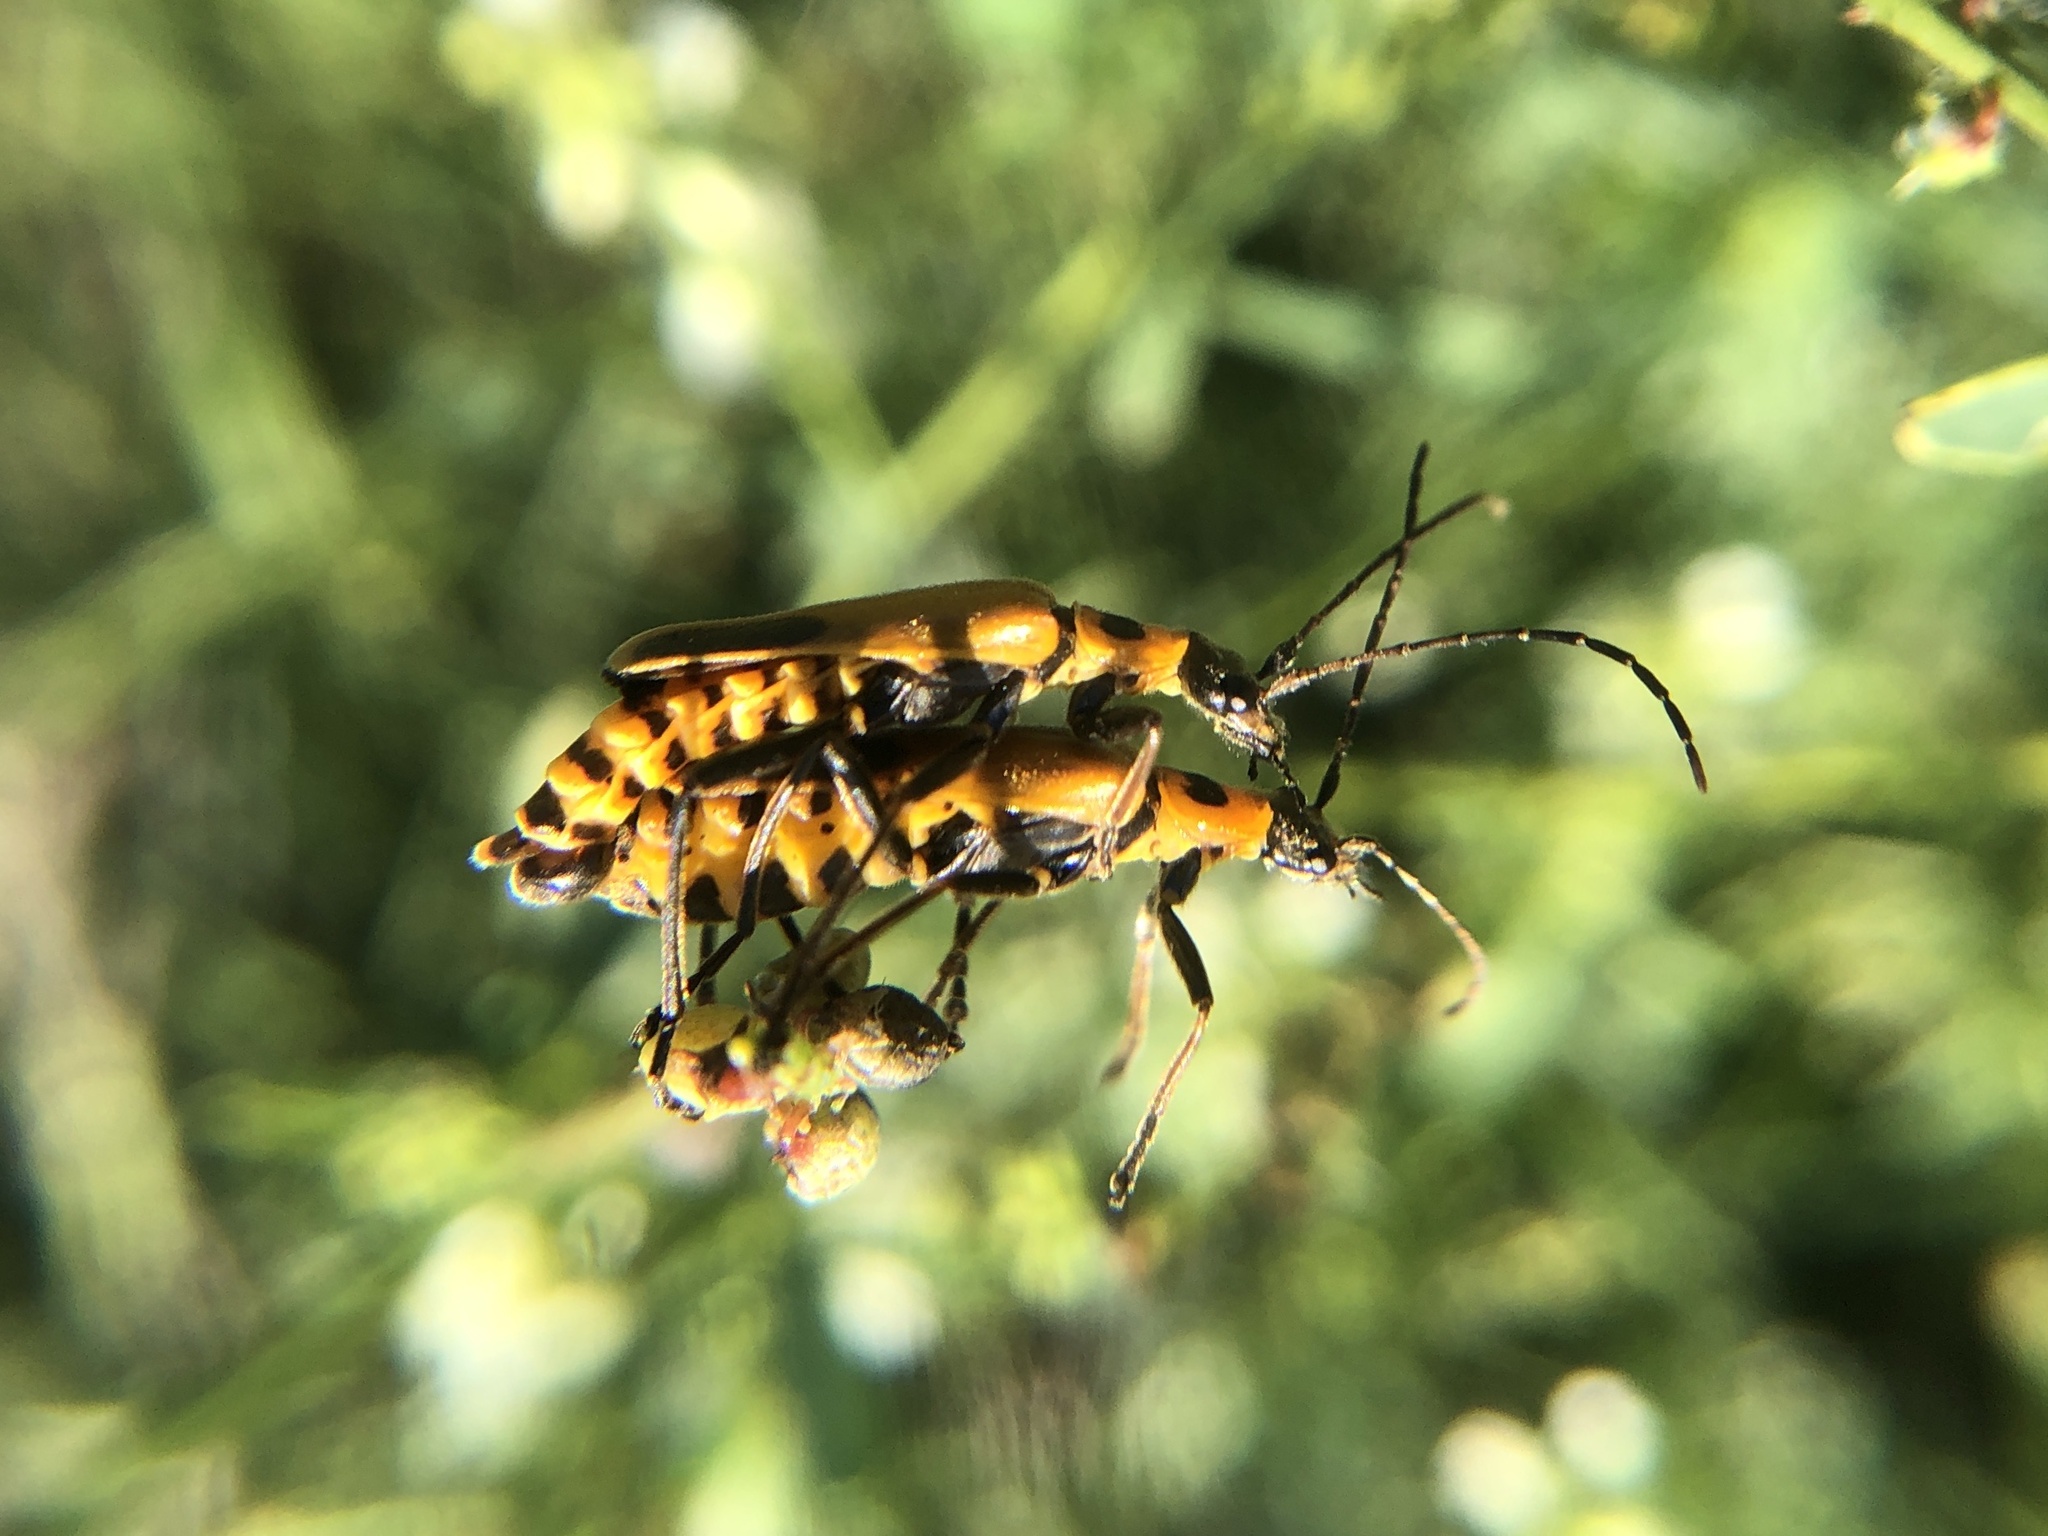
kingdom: Animalia
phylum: Arthropoda
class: Insecta
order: Coleoptera
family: Cantharidae
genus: Chauliognathus
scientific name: Chauliognathus pensylvanicus
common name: Goldenrod soldier beetle
